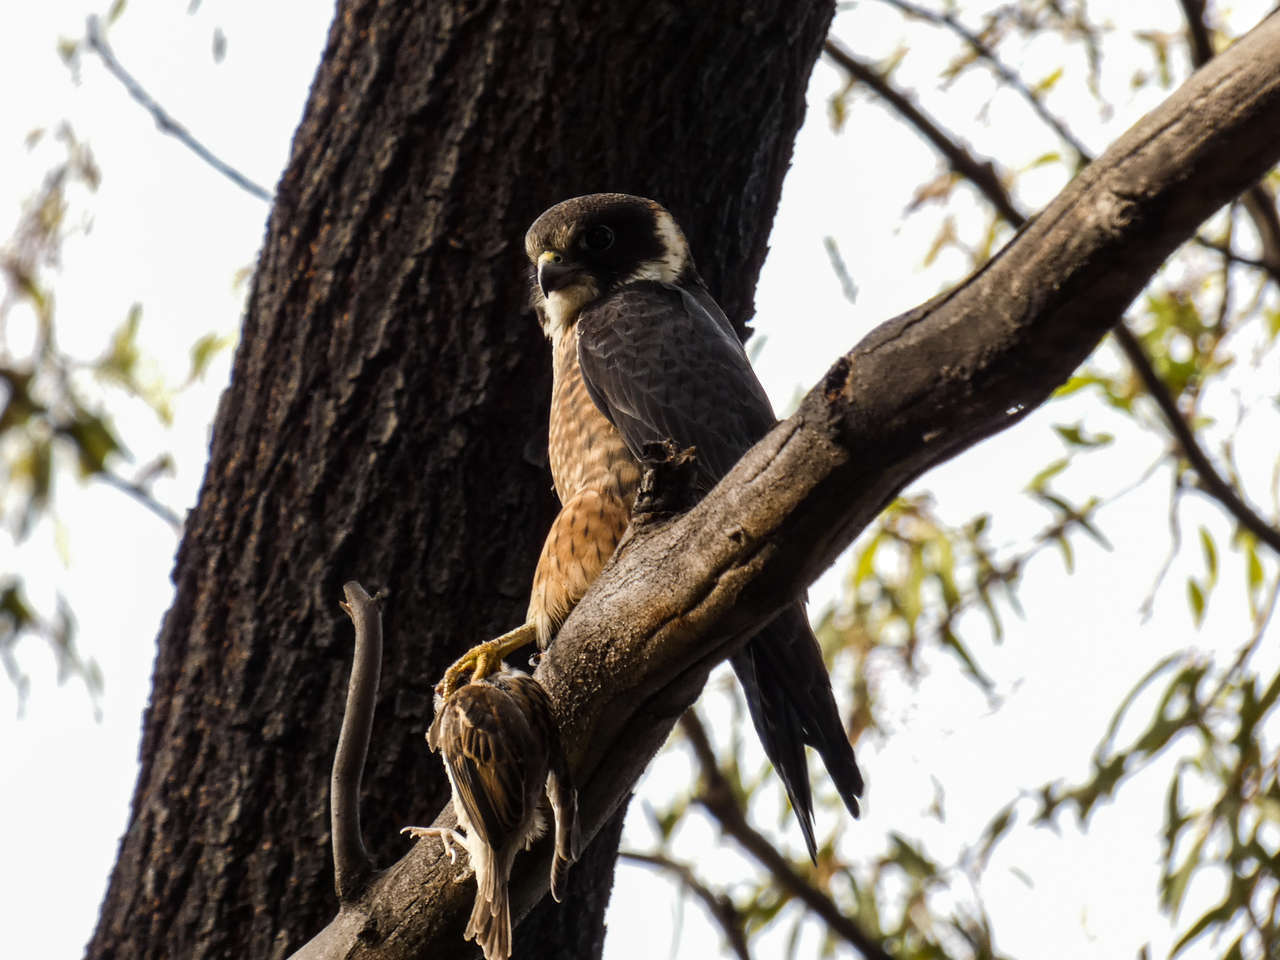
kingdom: Animalia
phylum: Chordata
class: Aves
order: Falconiformes
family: Falconidae
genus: Falco
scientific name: Falco longipennis
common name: Australian hobby
